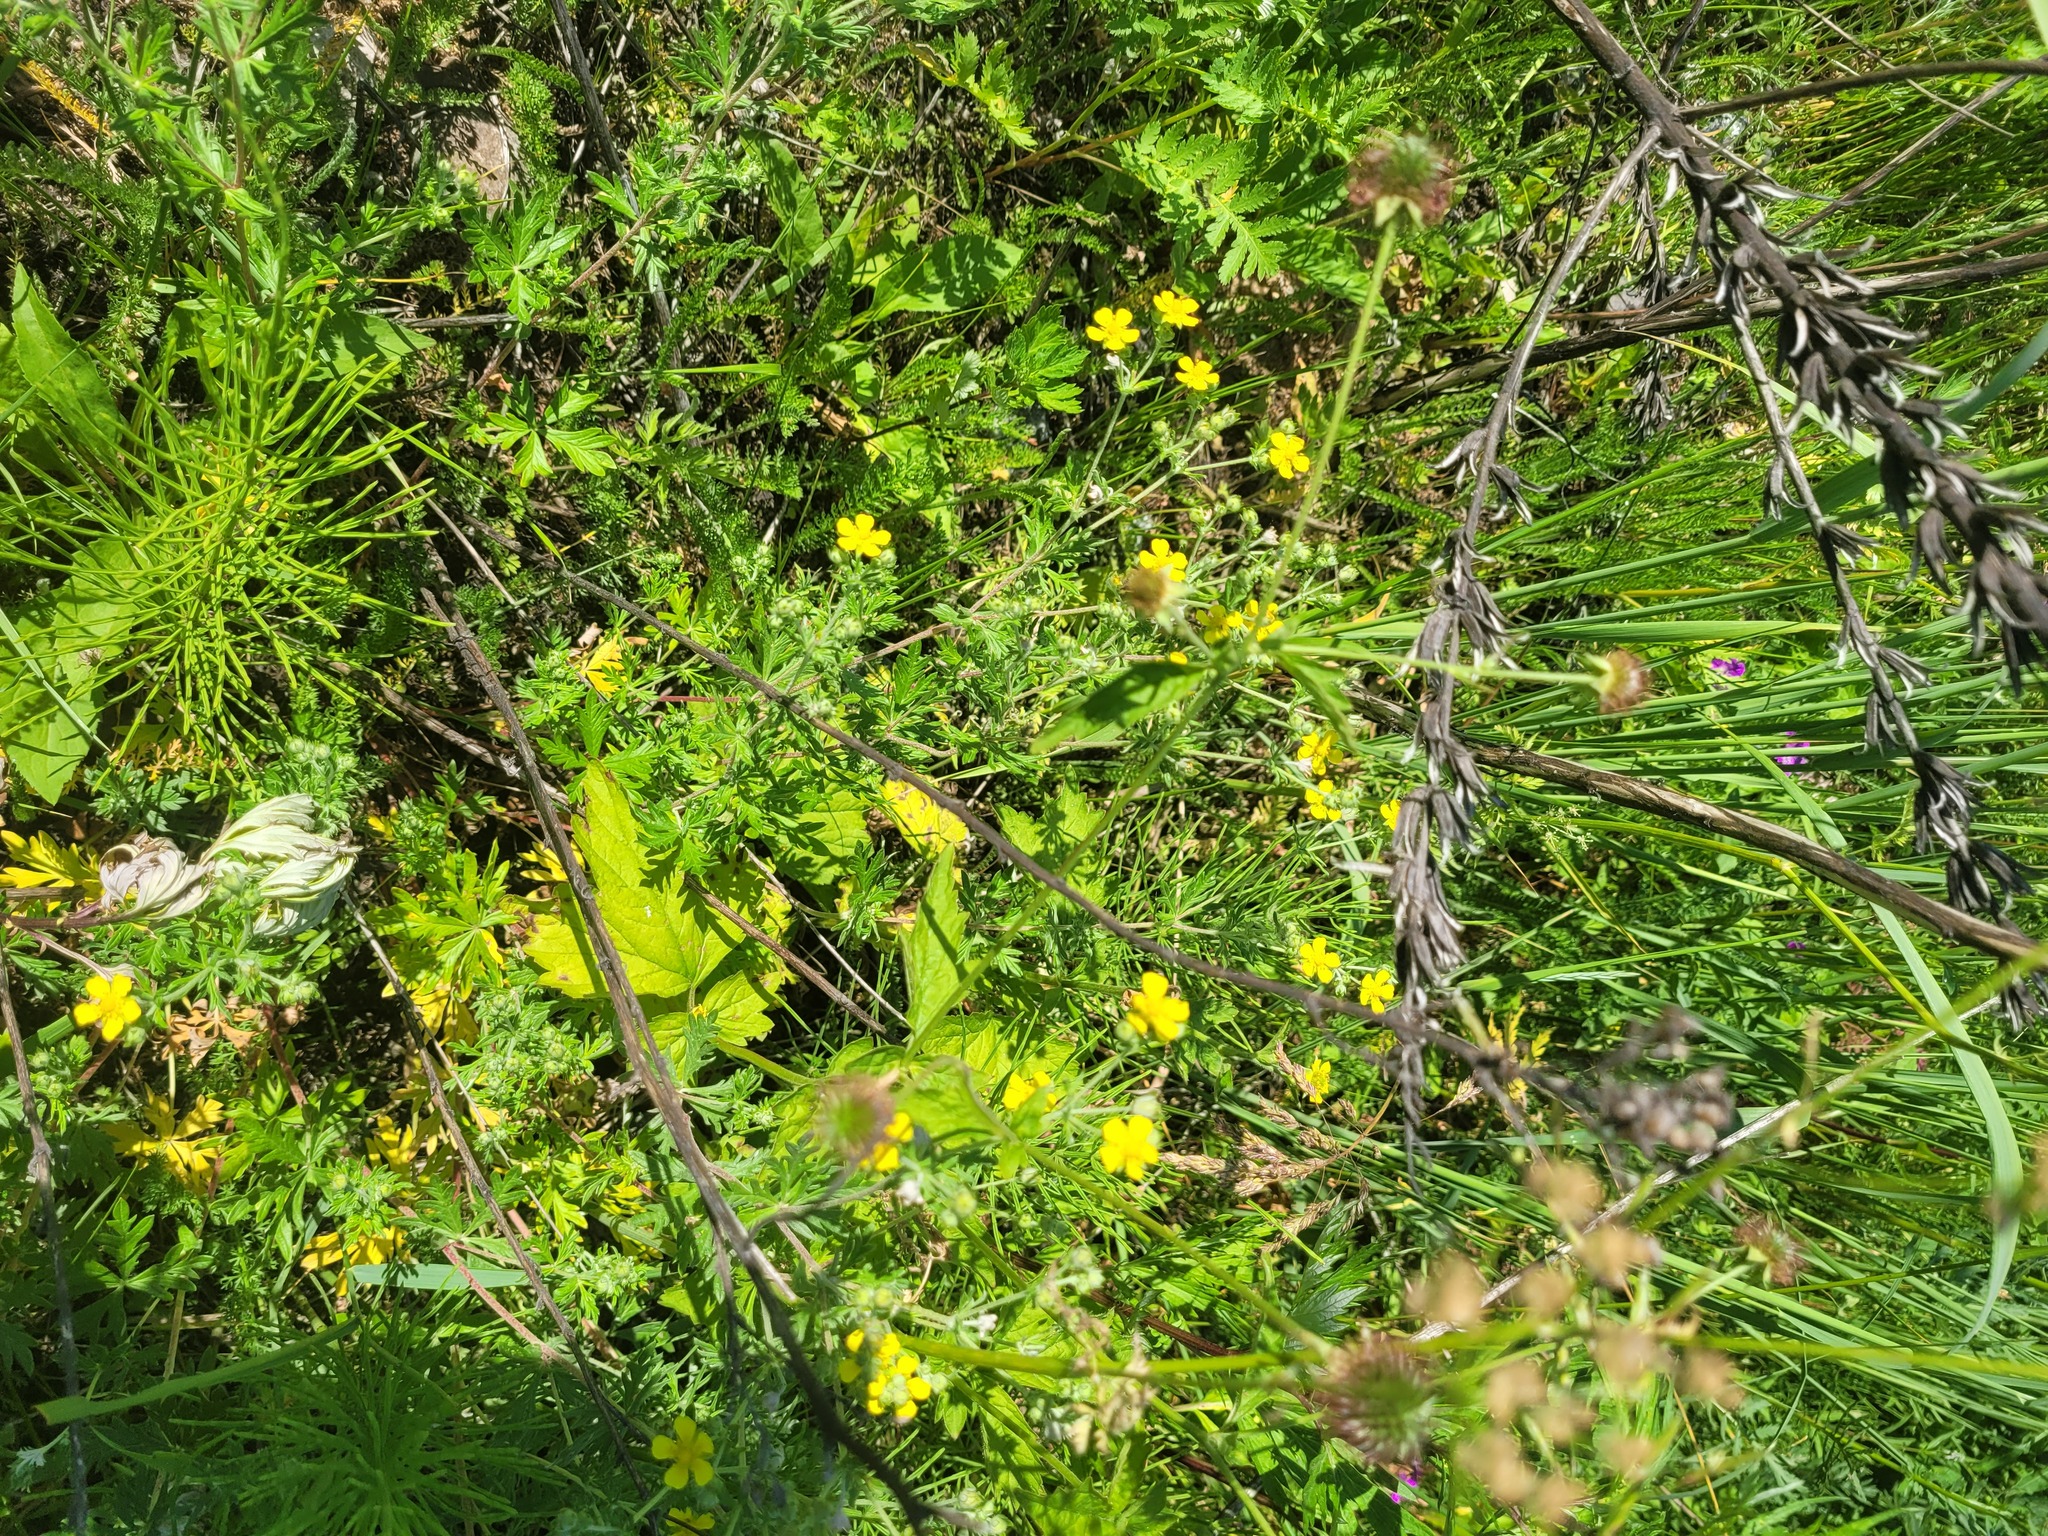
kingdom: Plantae
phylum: Tracheophyta
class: Magnoliopsida
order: Rosales
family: Rosaceae
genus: Potentilla
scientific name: Potentilla argentea
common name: Hoary cinquefoil
